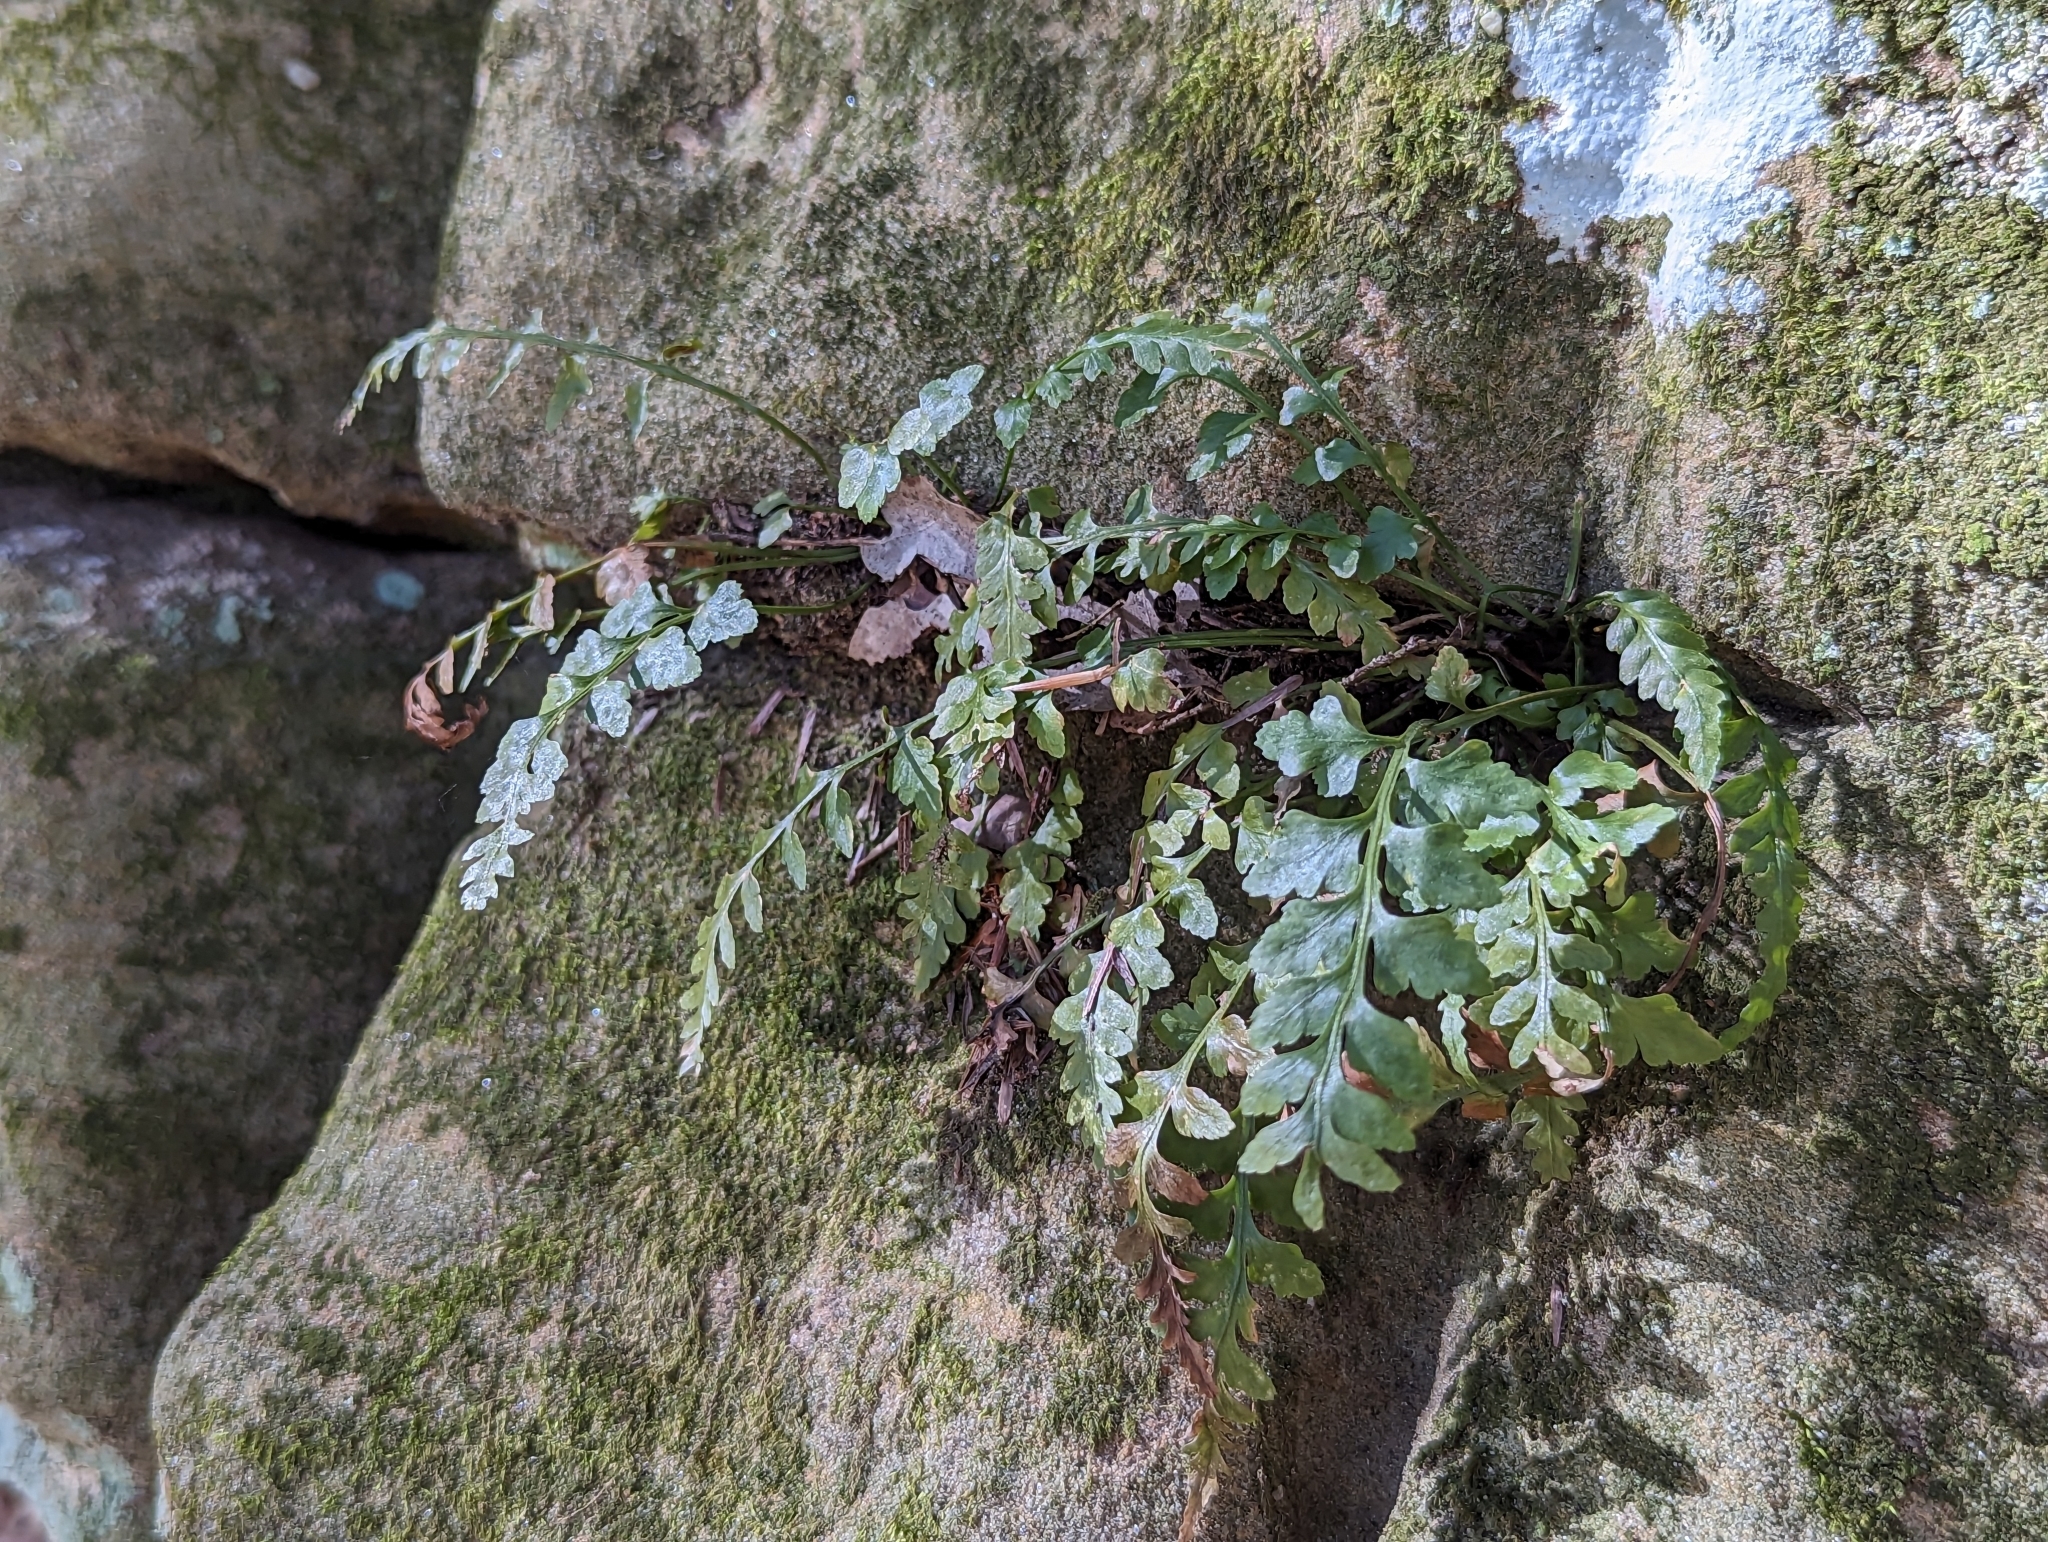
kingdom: Plantae
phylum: Tracheophyta
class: Polypodiopsida
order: Polypodiales
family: Aspleniaceae
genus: Asplenium
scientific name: Asplenium montanum
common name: Mountain spleenwort
